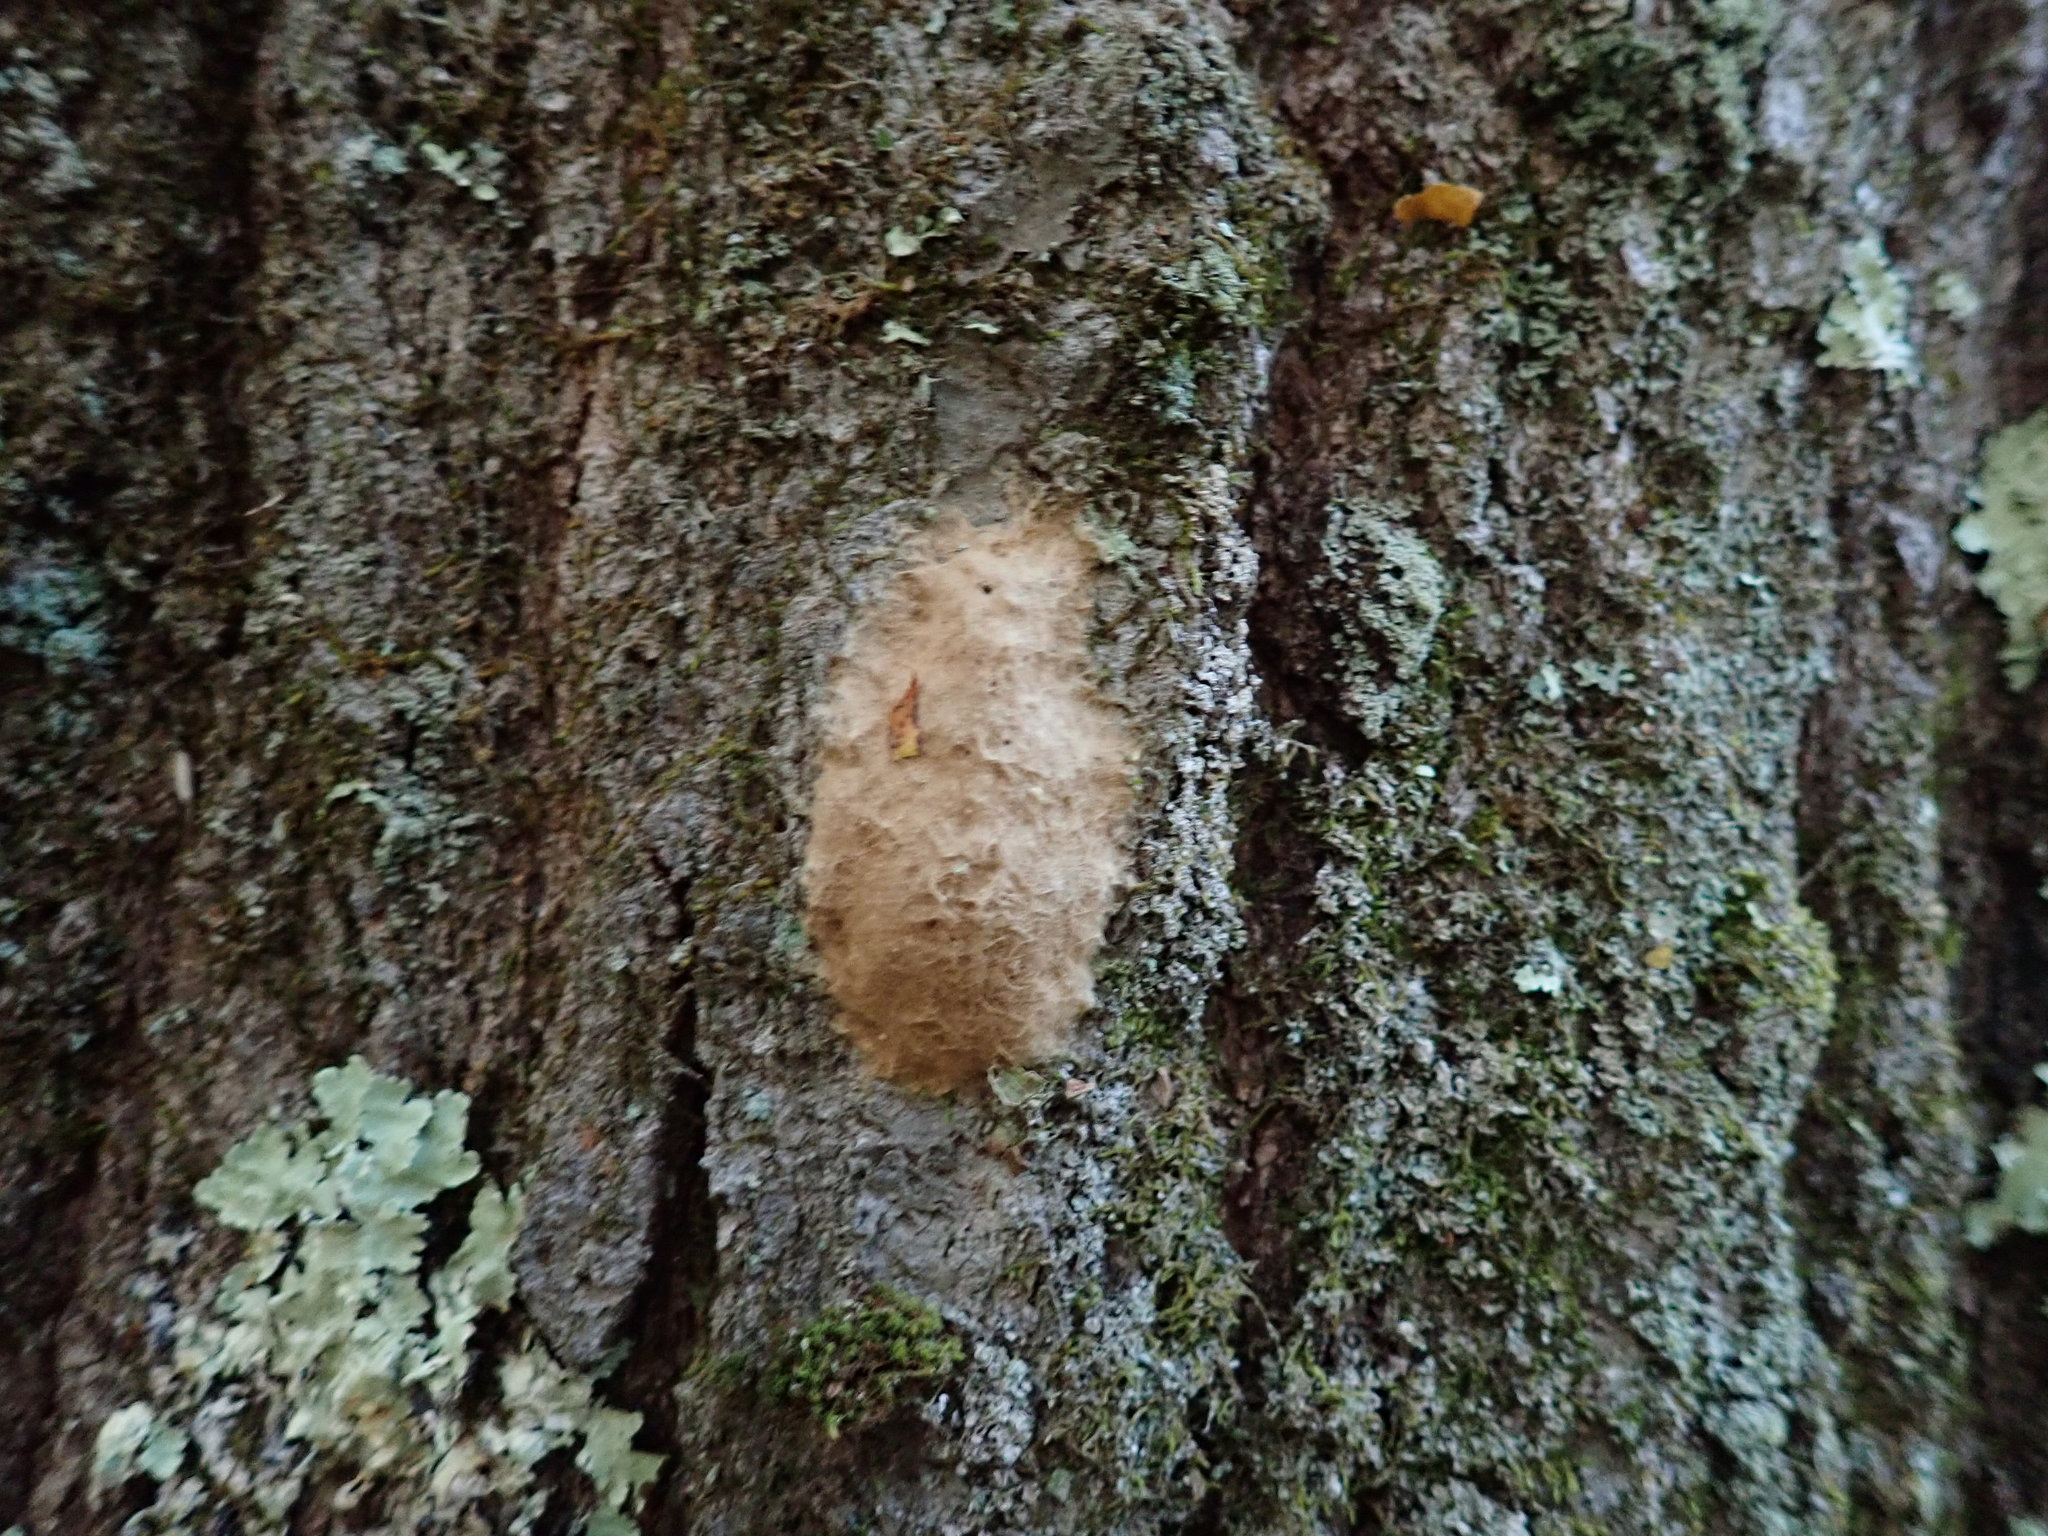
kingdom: Animalia
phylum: Arthropoda
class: Insecta
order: Lepidoptera
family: Erebidae
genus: Lymantria
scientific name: Lymantria dispar
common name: Gypsy moth
